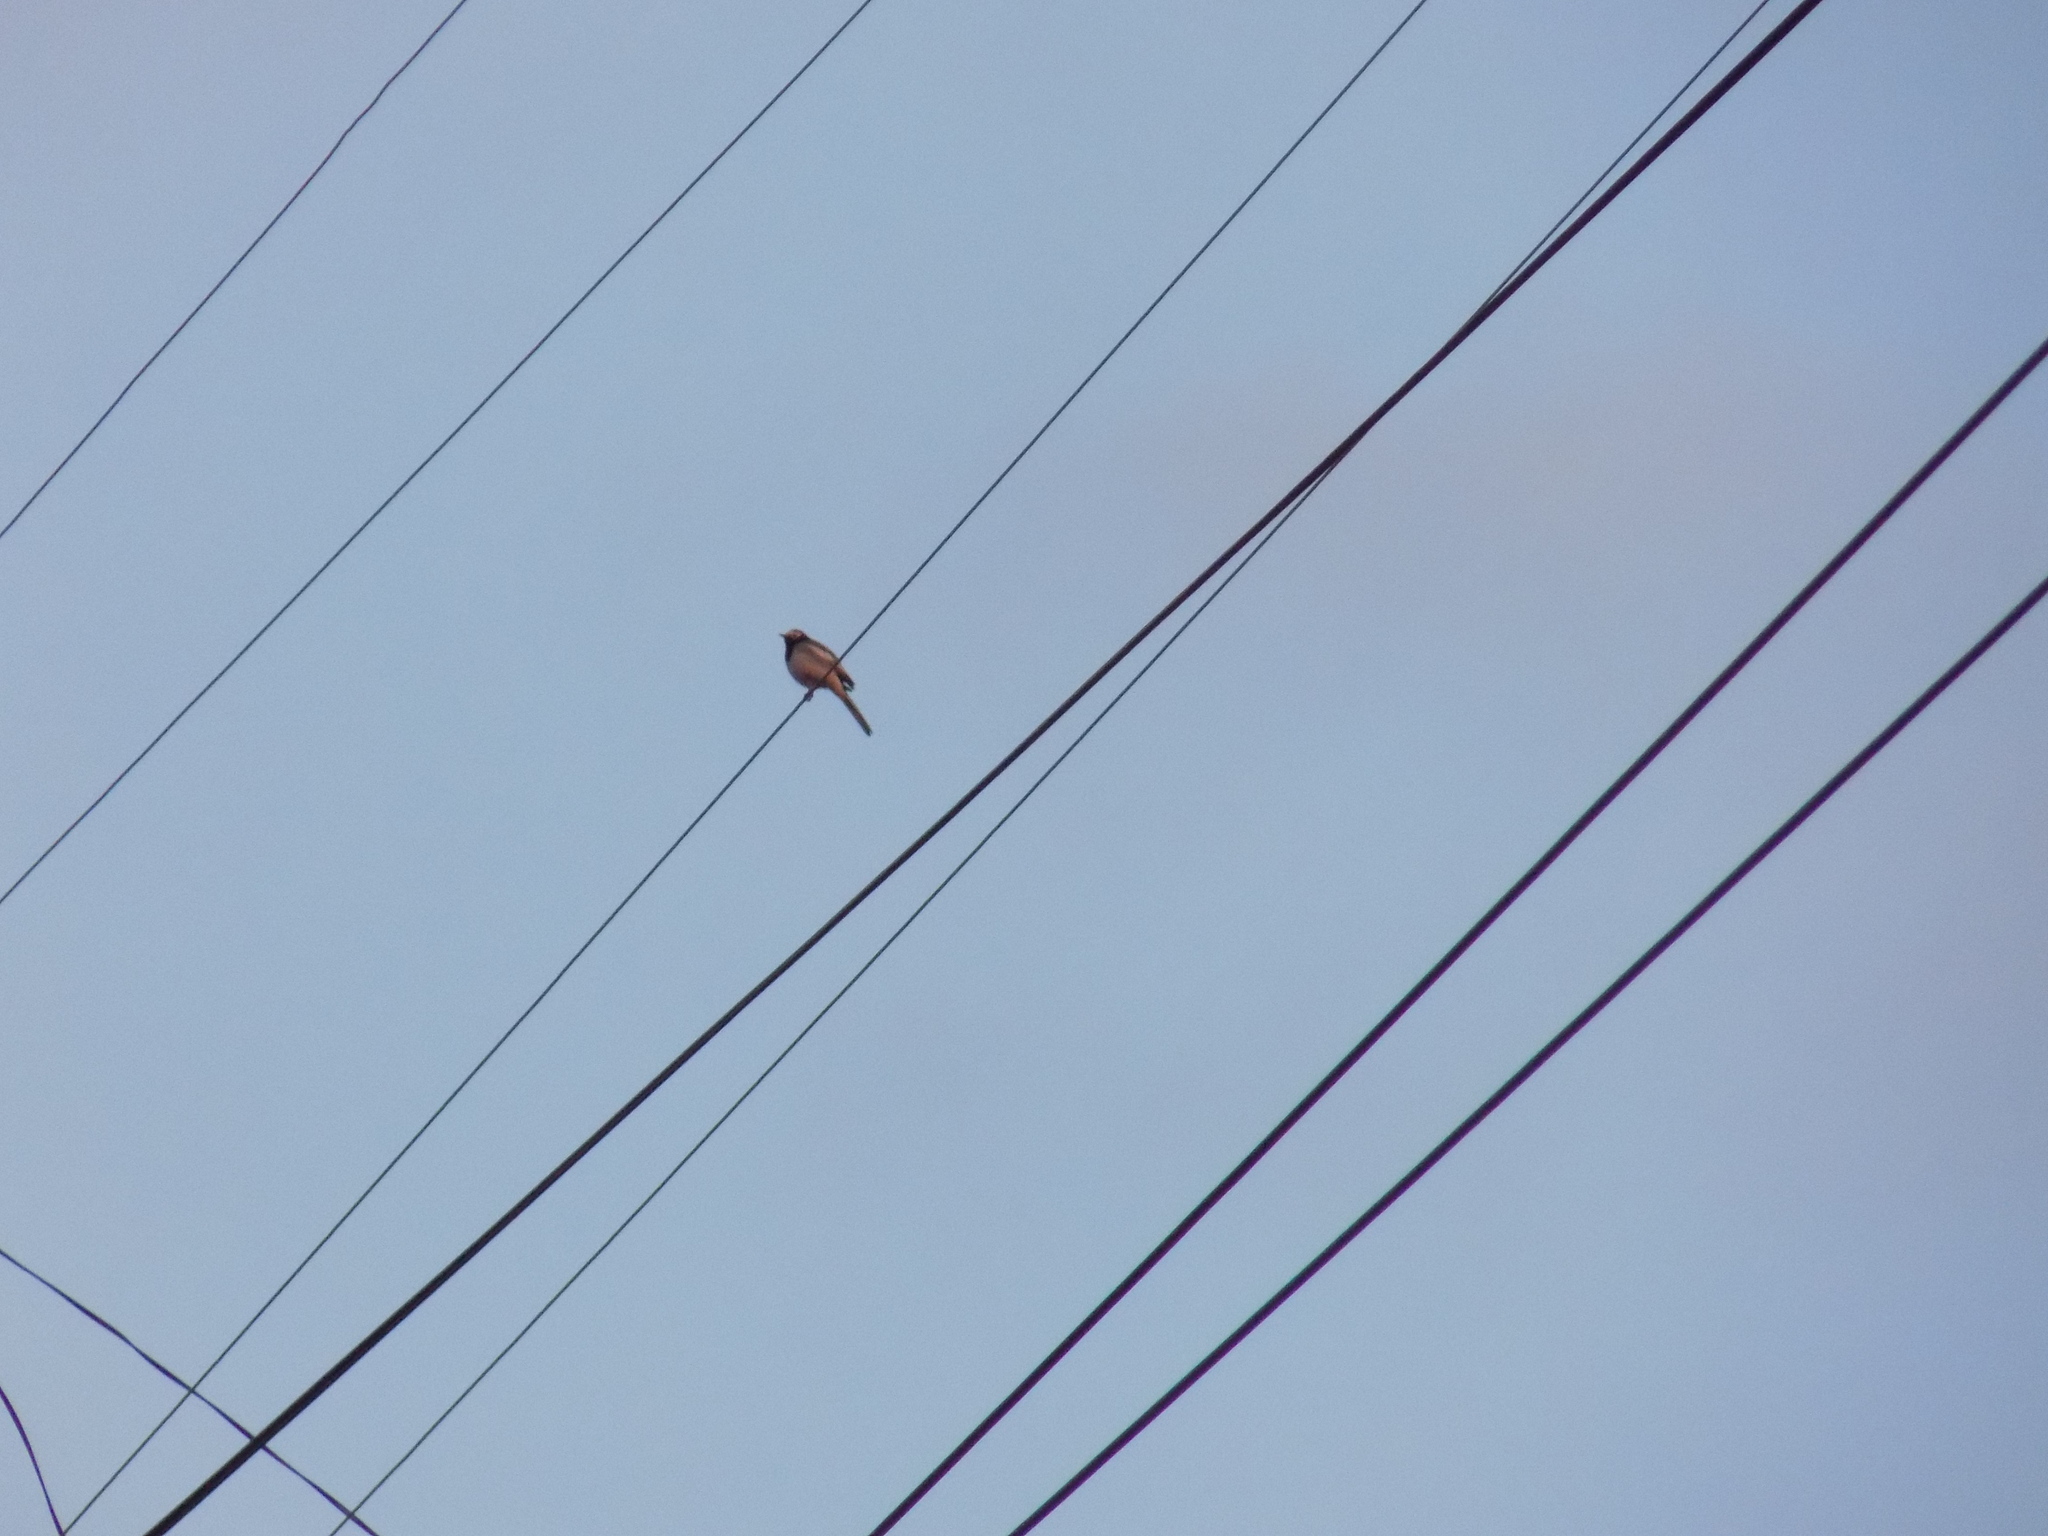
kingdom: Animalia
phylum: Chordata
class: Aves
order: Passeriformes
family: Motacillidae
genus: Motacilla
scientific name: Motacilla alba
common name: White wagtail
